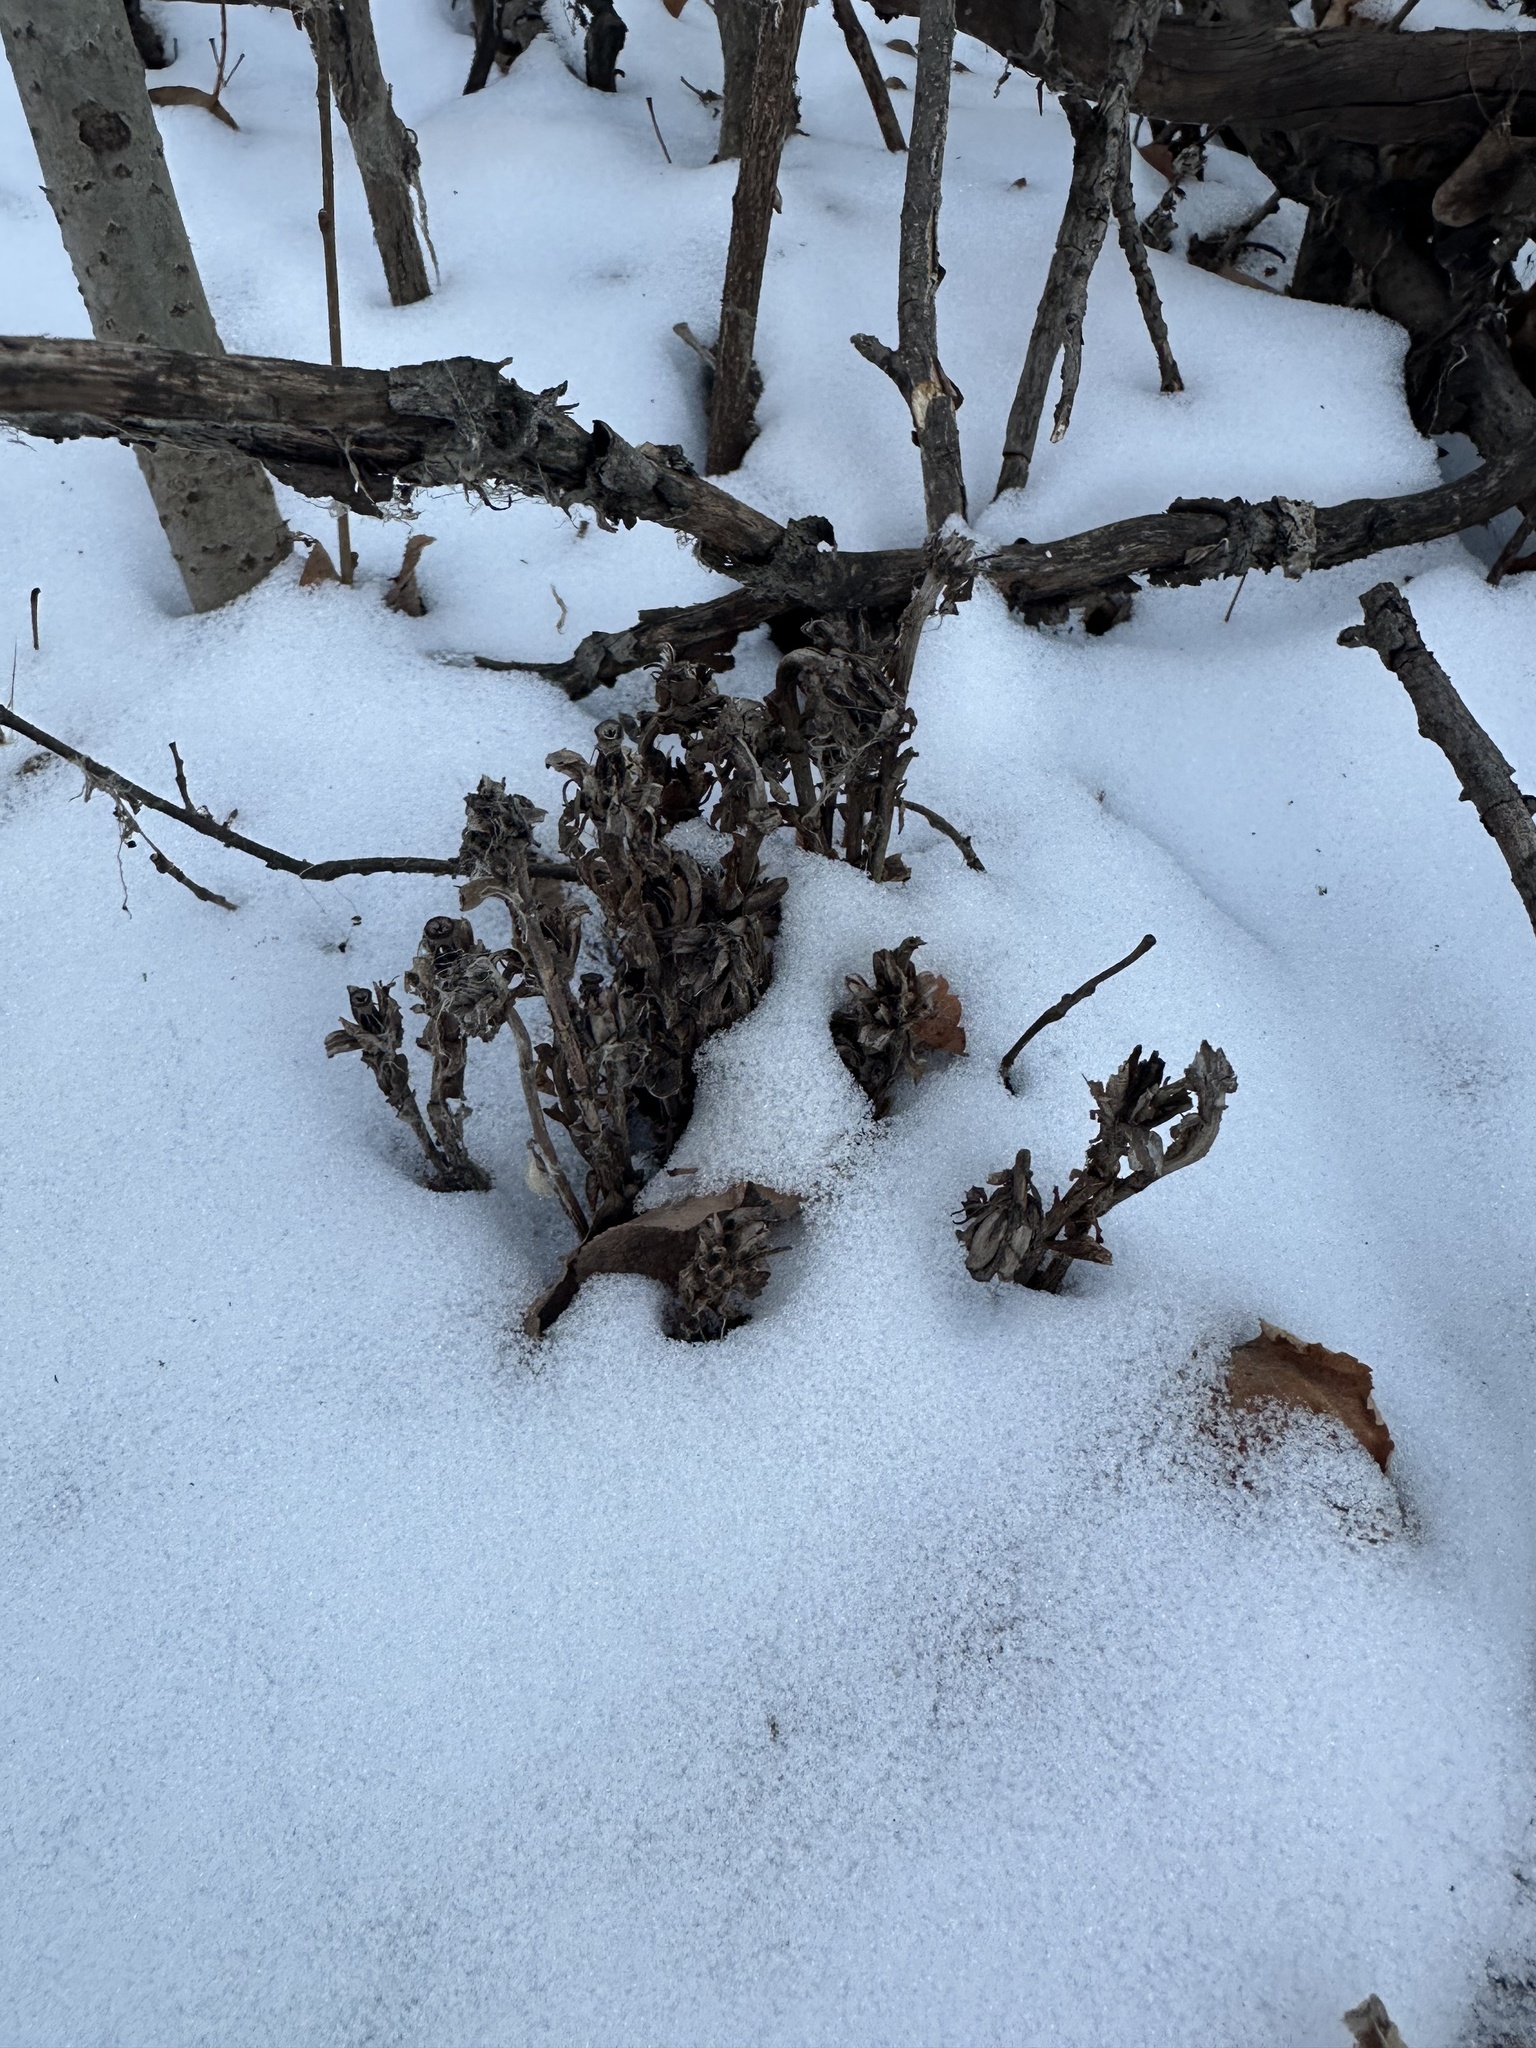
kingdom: Plantae
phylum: Tracheophyta
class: Magnoliopsida
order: Ericales
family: Ericaceae
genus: Monotropa
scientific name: Monotropa uniflora
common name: Convulsion root
